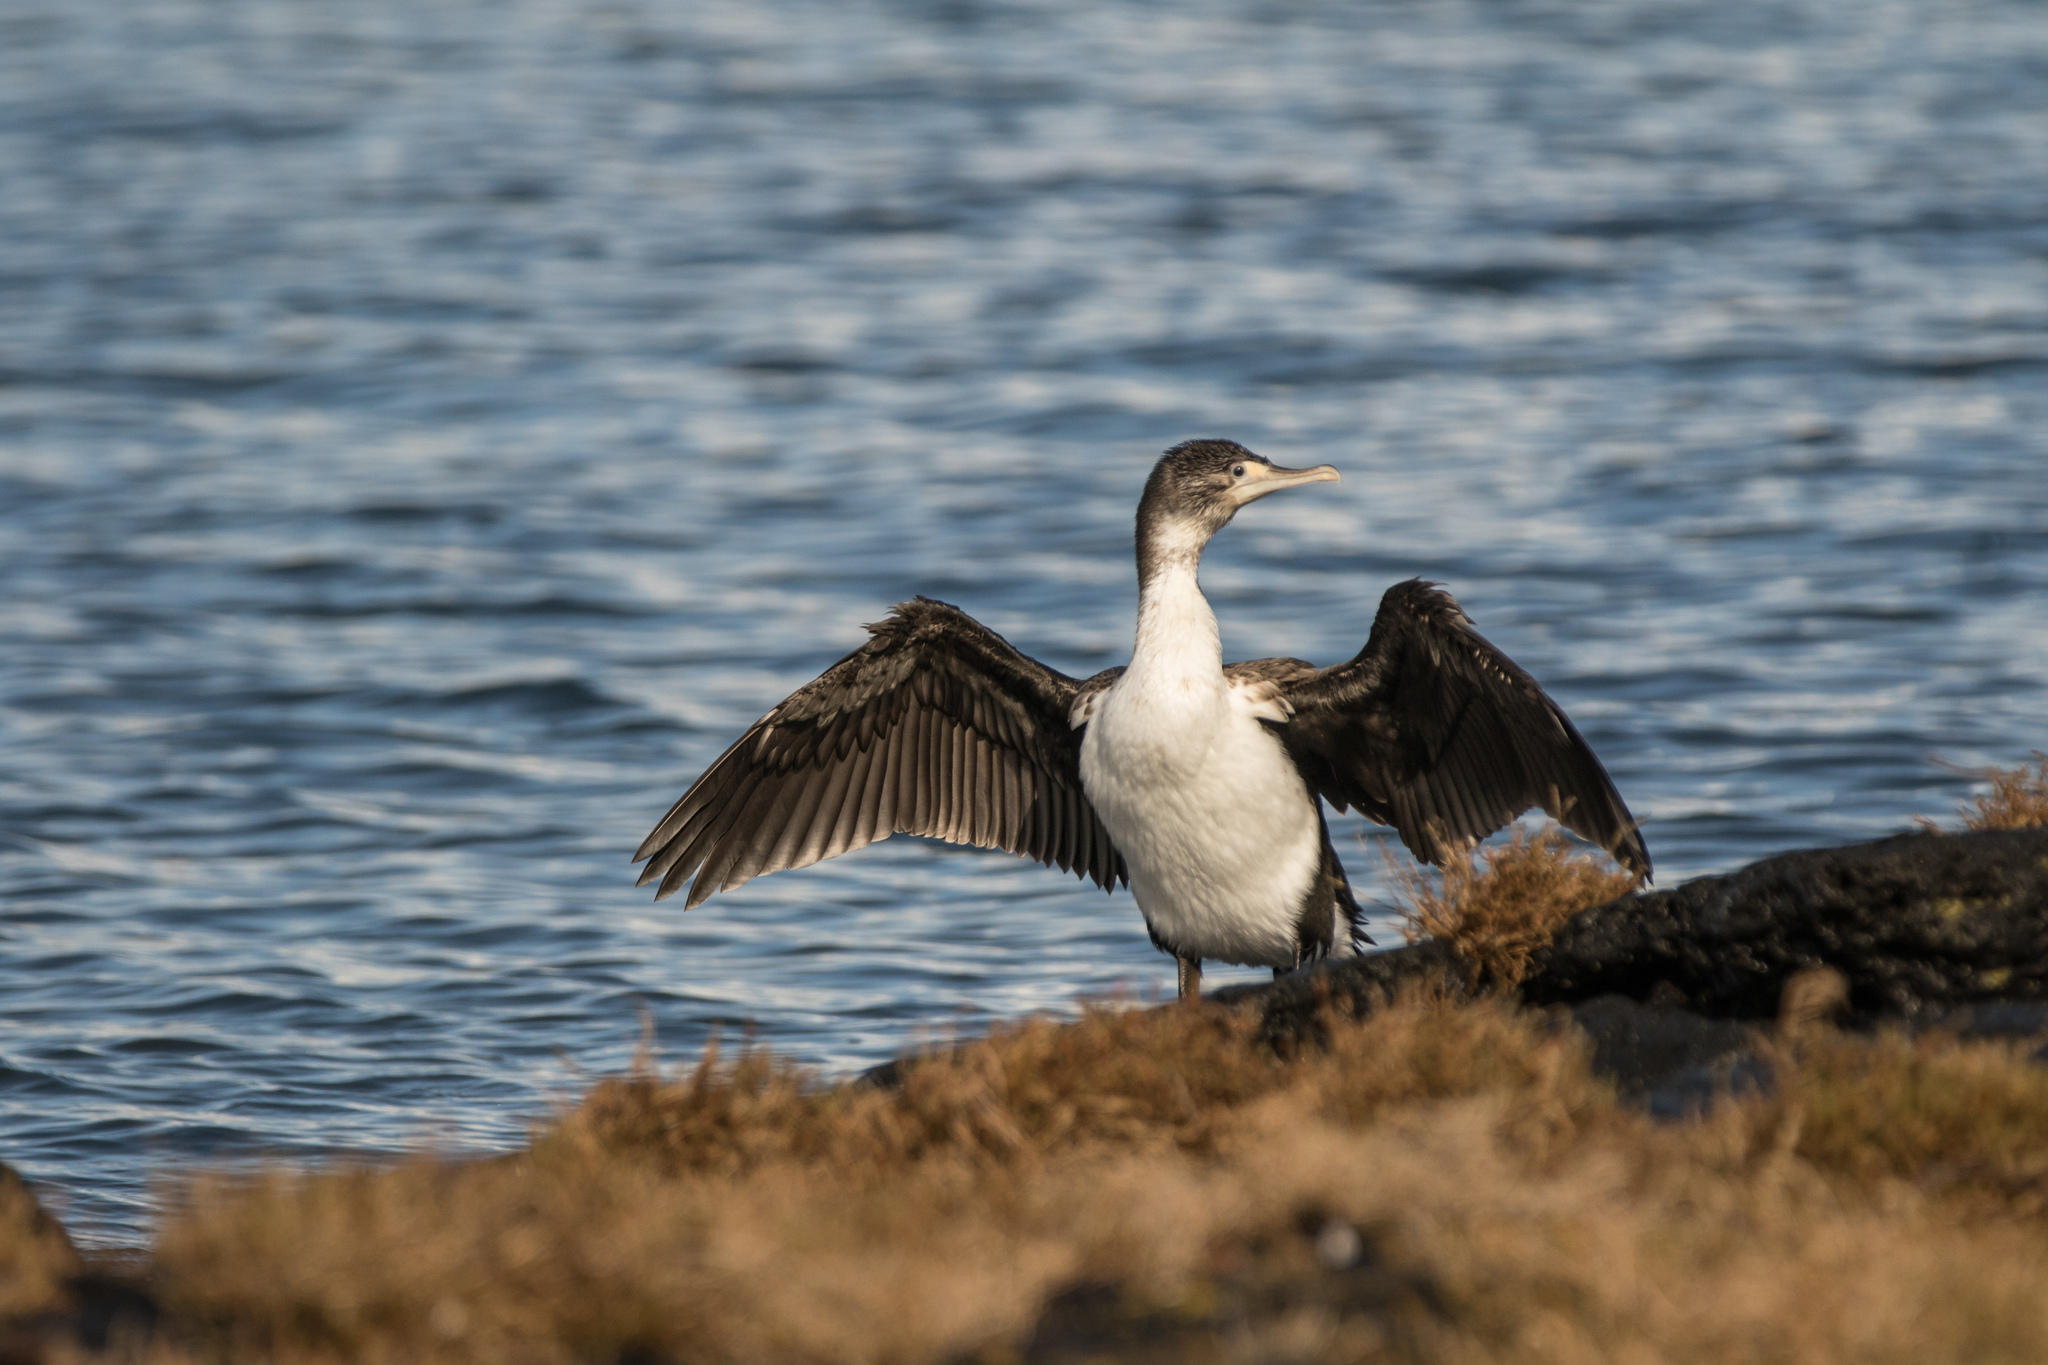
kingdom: Animalia
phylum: Chordata
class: Aves
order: Suliformes
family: Phalacrocoracidae
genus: Phalacrocorax
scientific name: Phalacrocorax varius
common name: Pied cormorant
